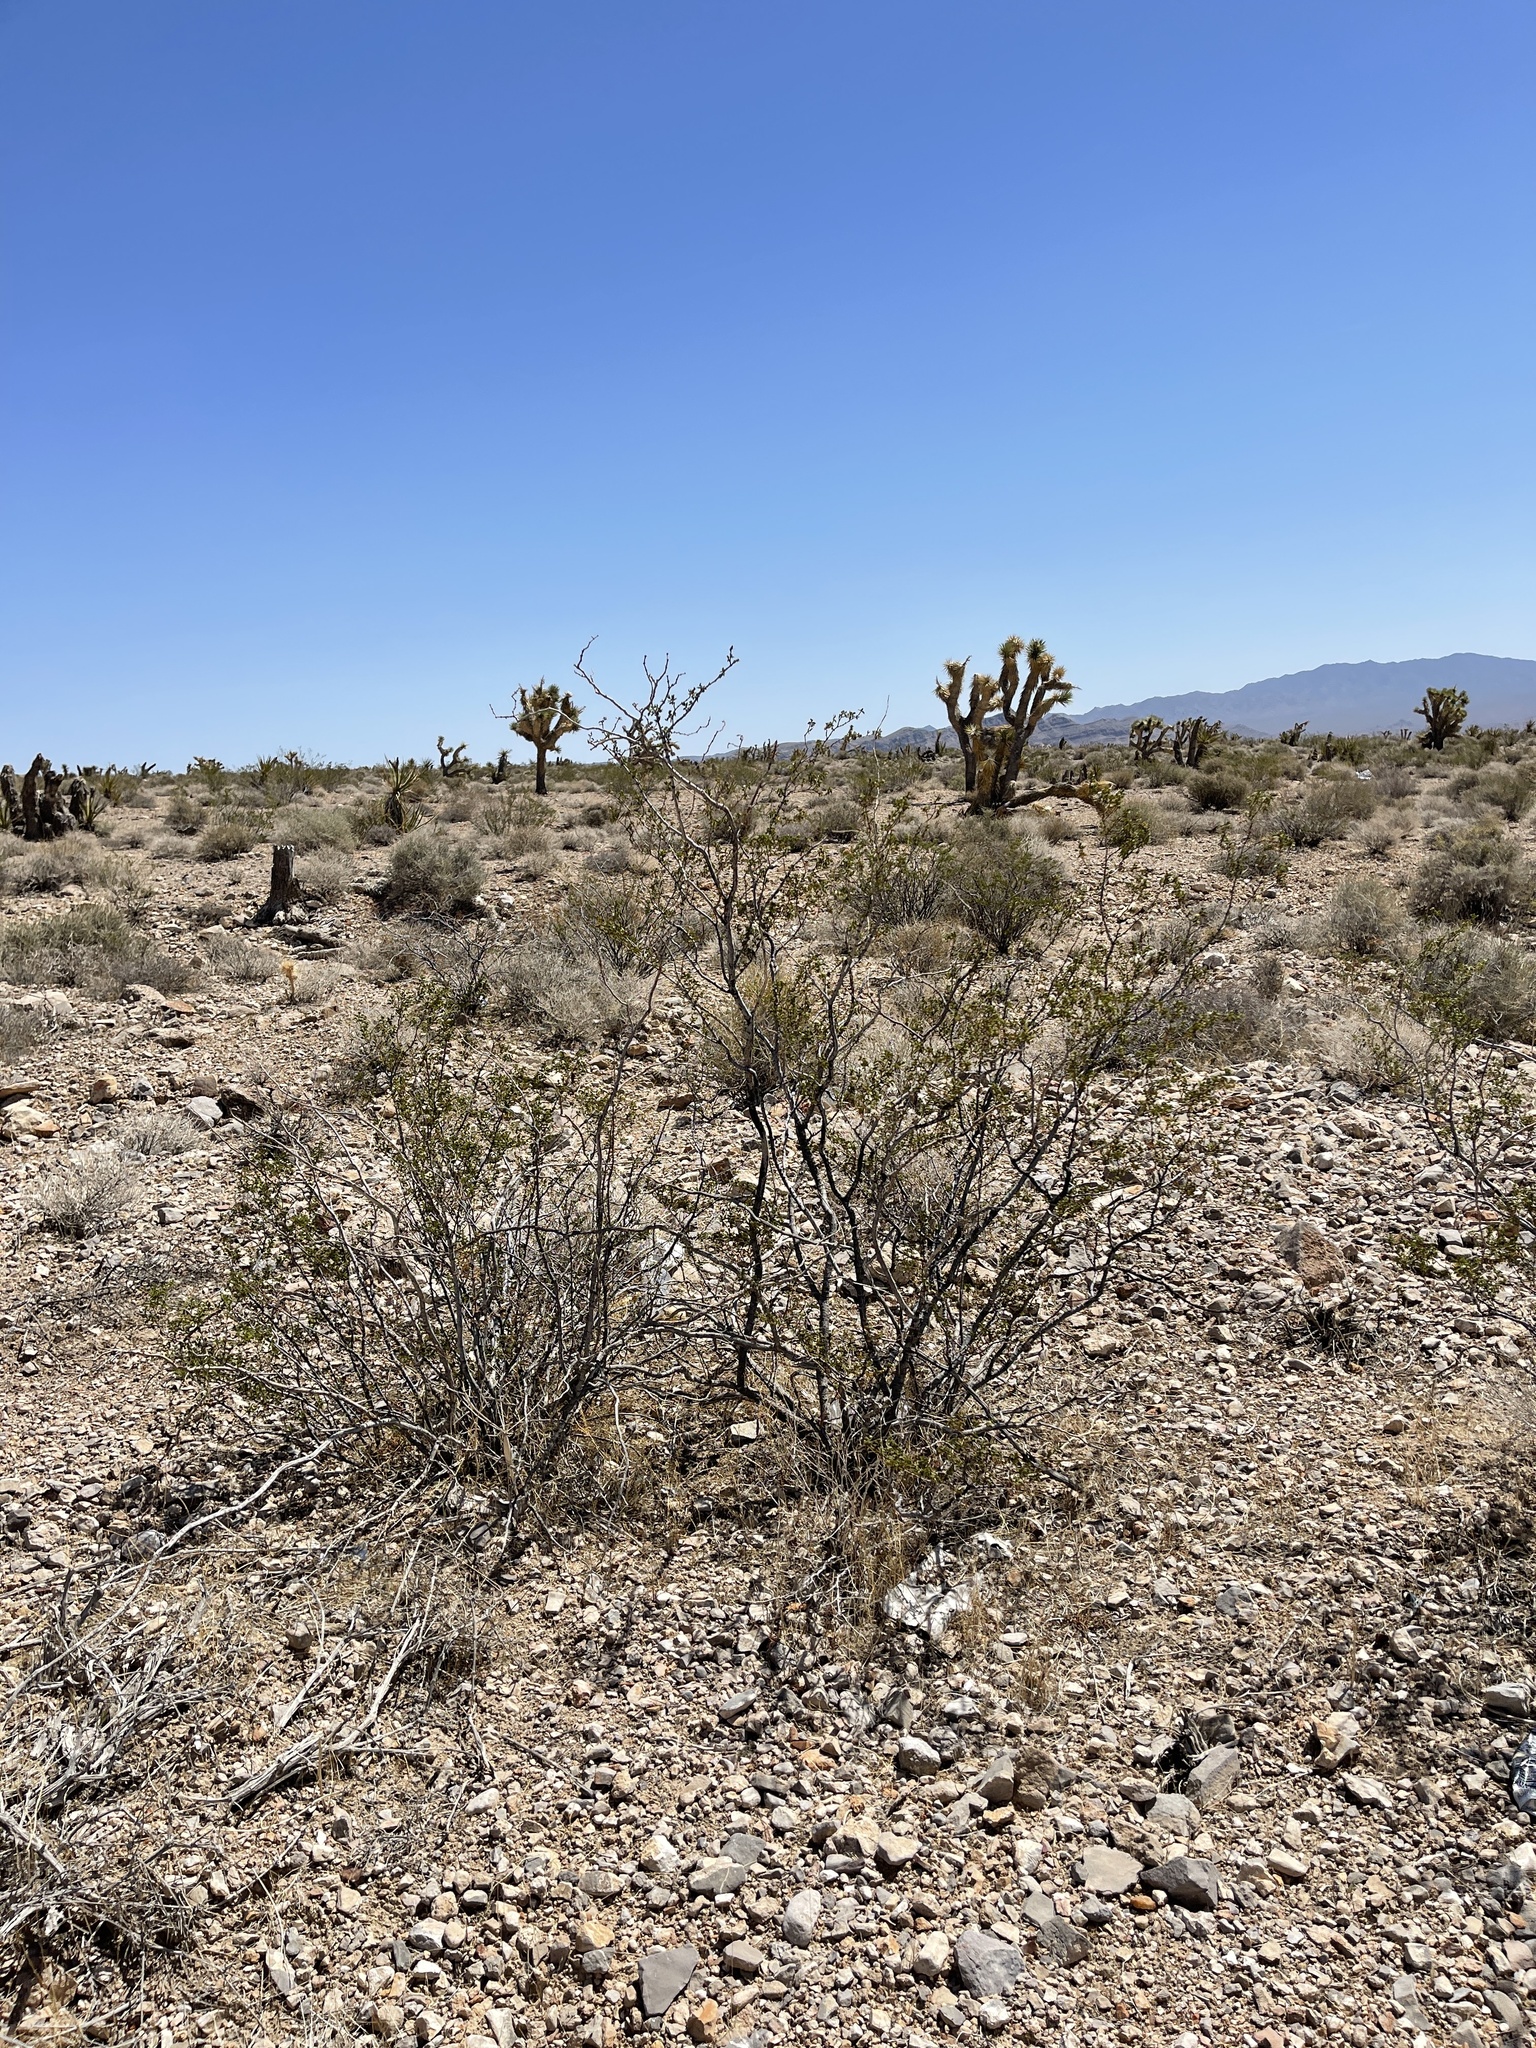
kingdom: Plantae
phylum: Tracheophyta
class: Magnoliopsida
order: Zygophyllales
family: Zygophyllaceae
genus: Larrea
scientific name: Larrea tridentata
